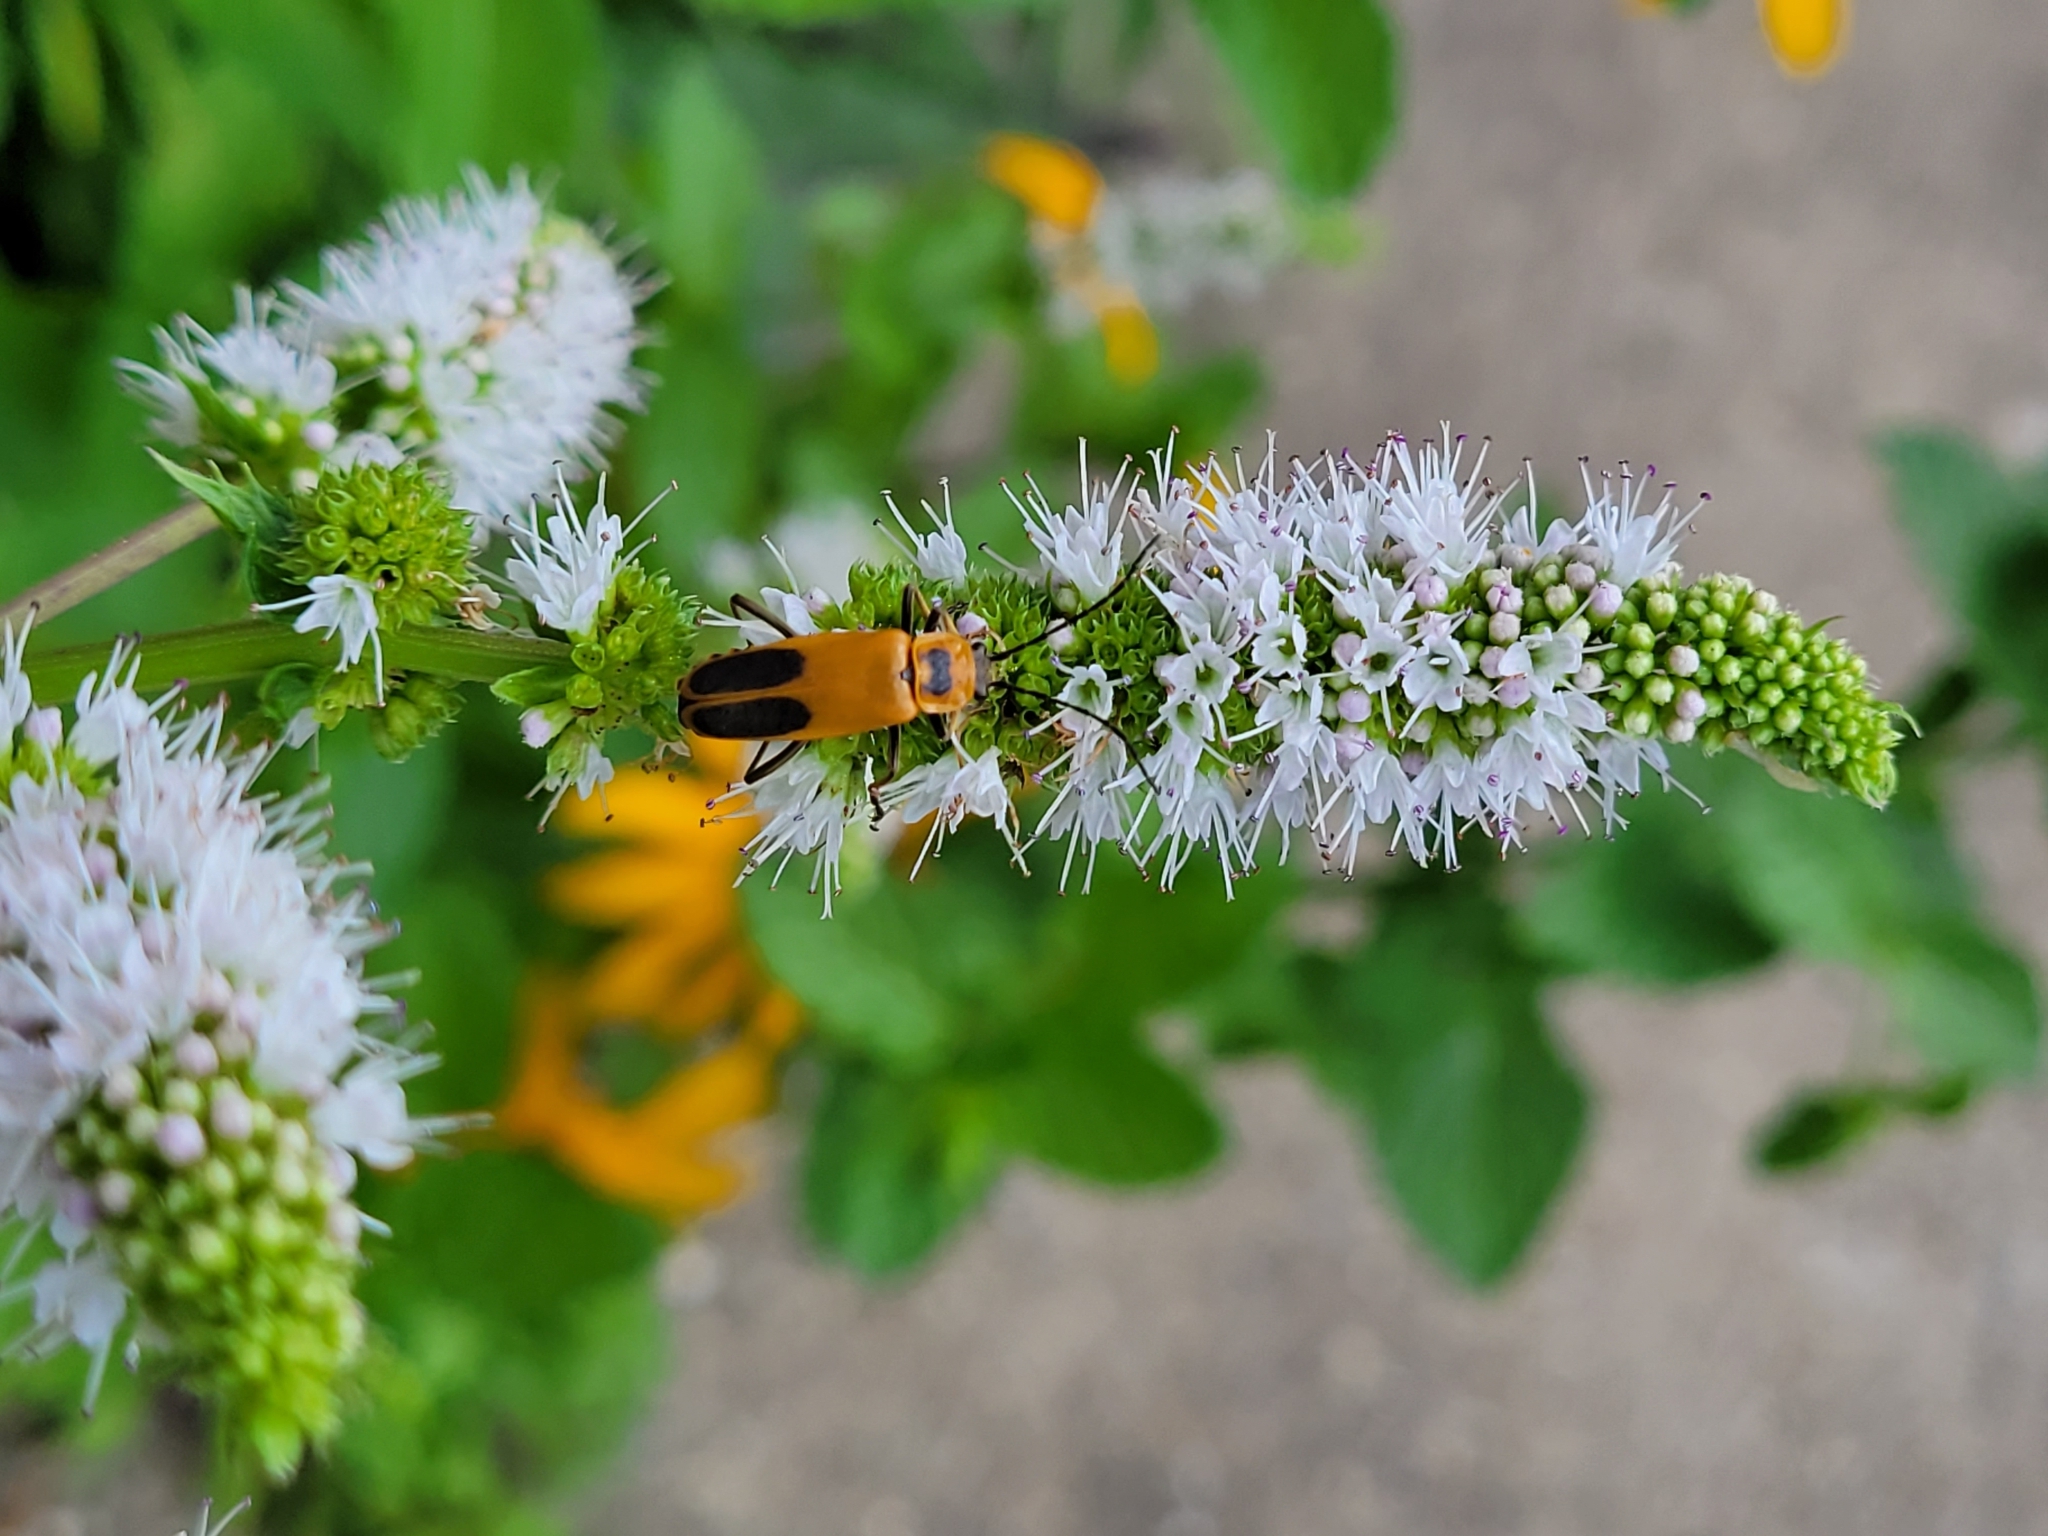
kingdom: Animalia
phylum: Arthropoda
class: Insecta
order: Coleoptera
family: Cantharidae
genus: Chauliognathus
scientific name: Chauliognathus pensylvanicus
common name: Goldenrod soldier beetle
